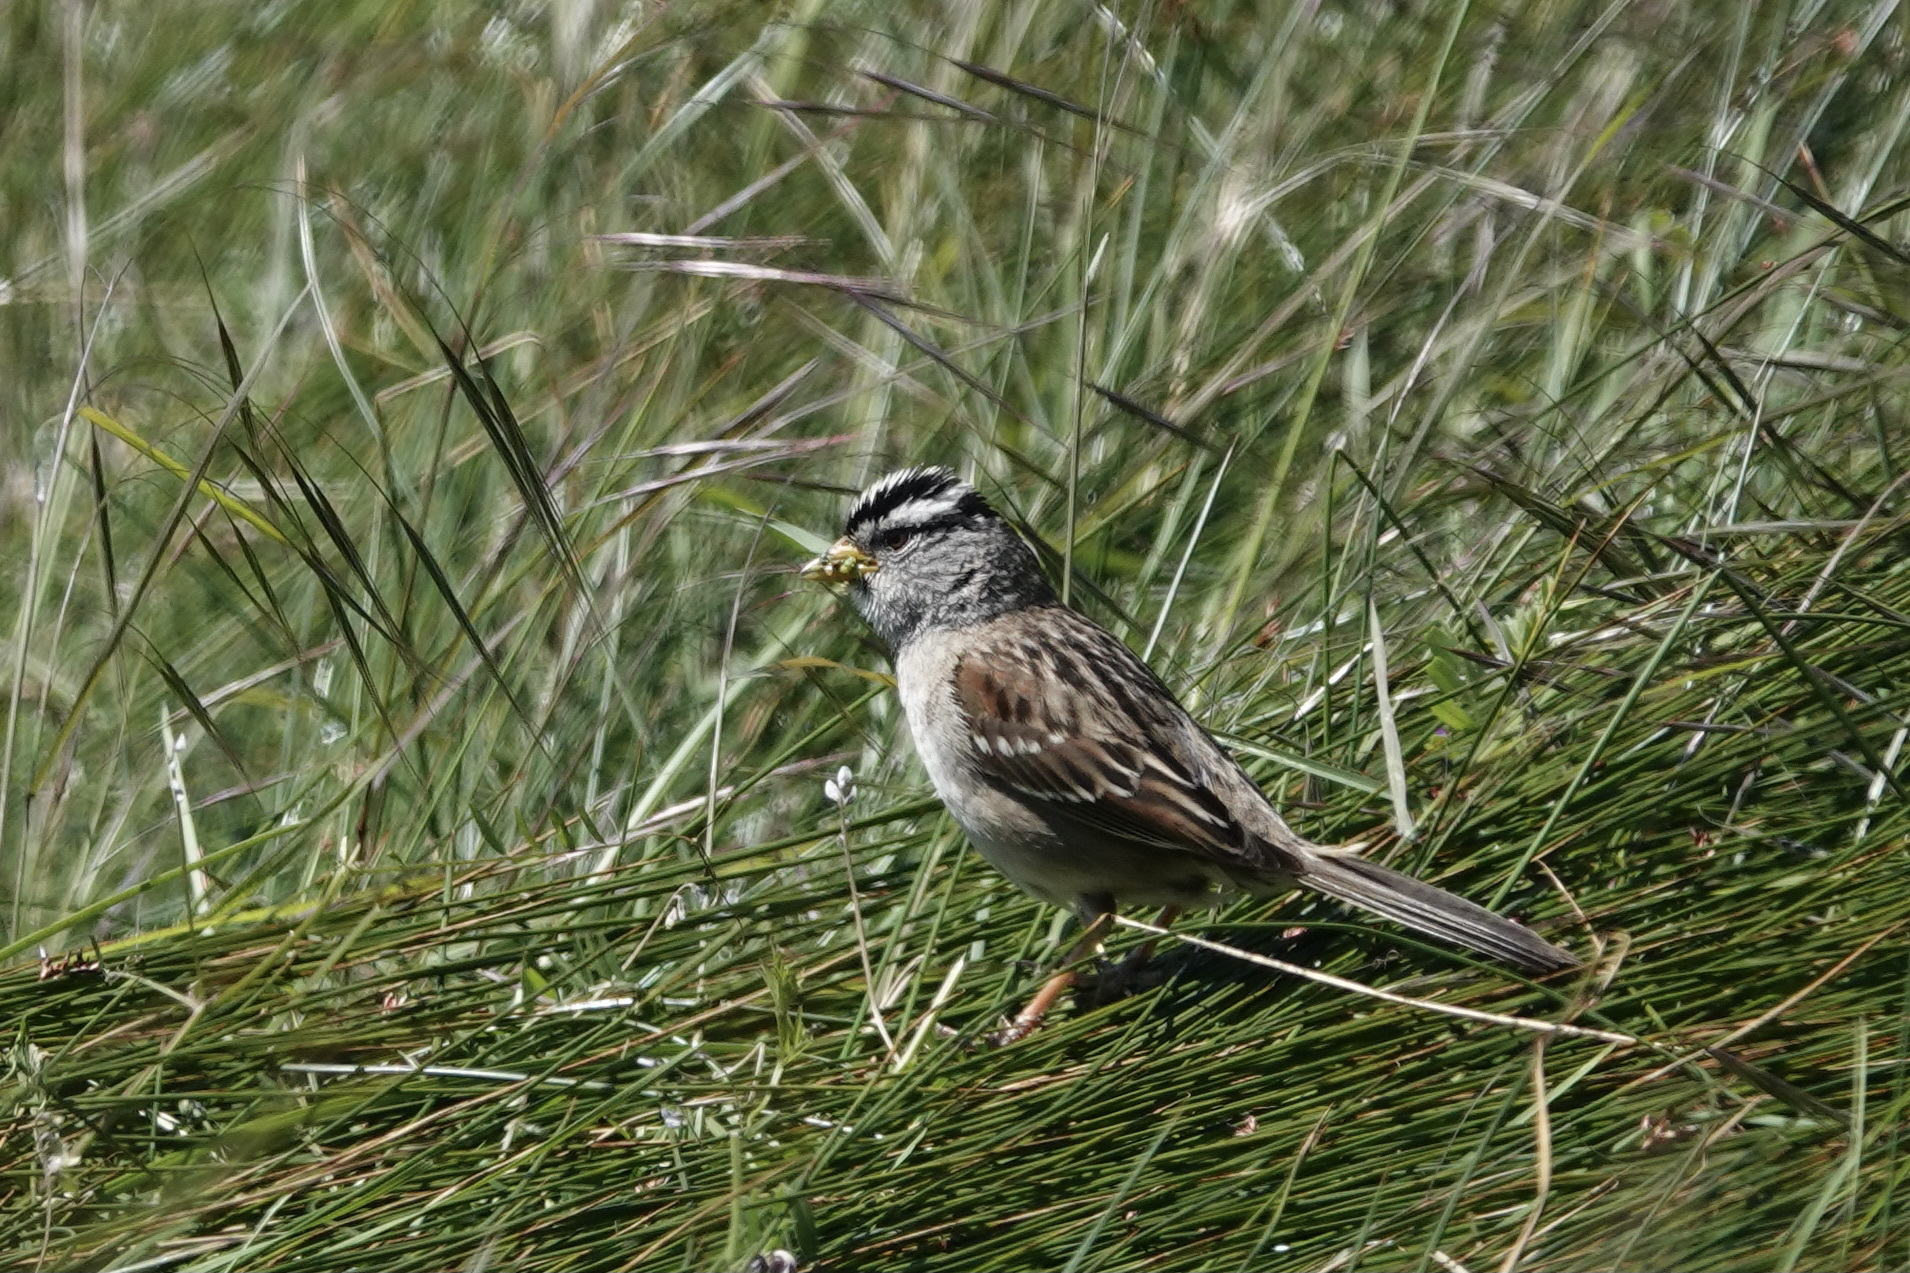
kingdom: Animalia
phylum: Chordata
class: Aves
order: Passeriformes
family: Passerellidae
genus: Zonotrichia
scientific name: Zonotrichia leucophrys
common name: White-crowned sparrow
